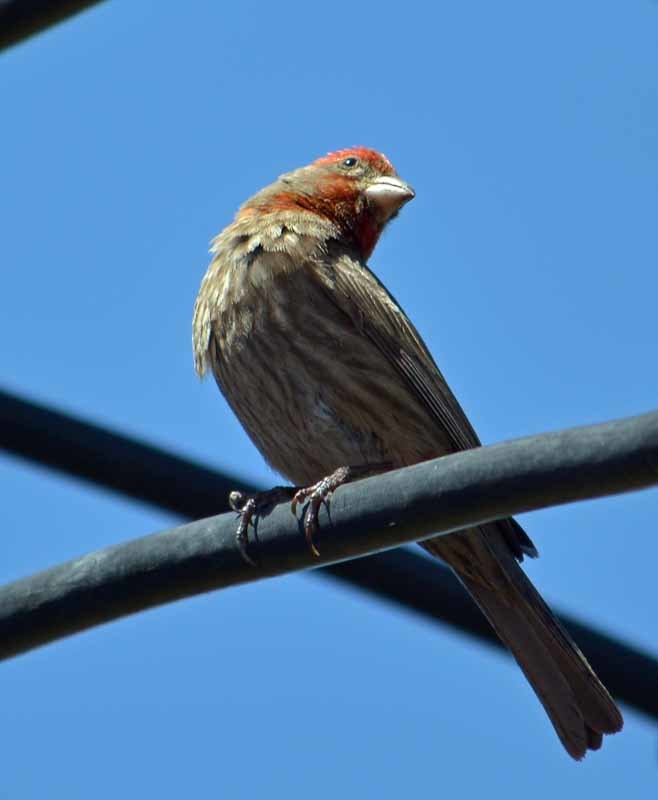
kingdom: Animalia
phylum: Chordata
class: Aves
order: Passeriformes
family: Fringillidae
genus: Haemorhous
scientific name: Haemorhous mexicanus
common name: House finch
